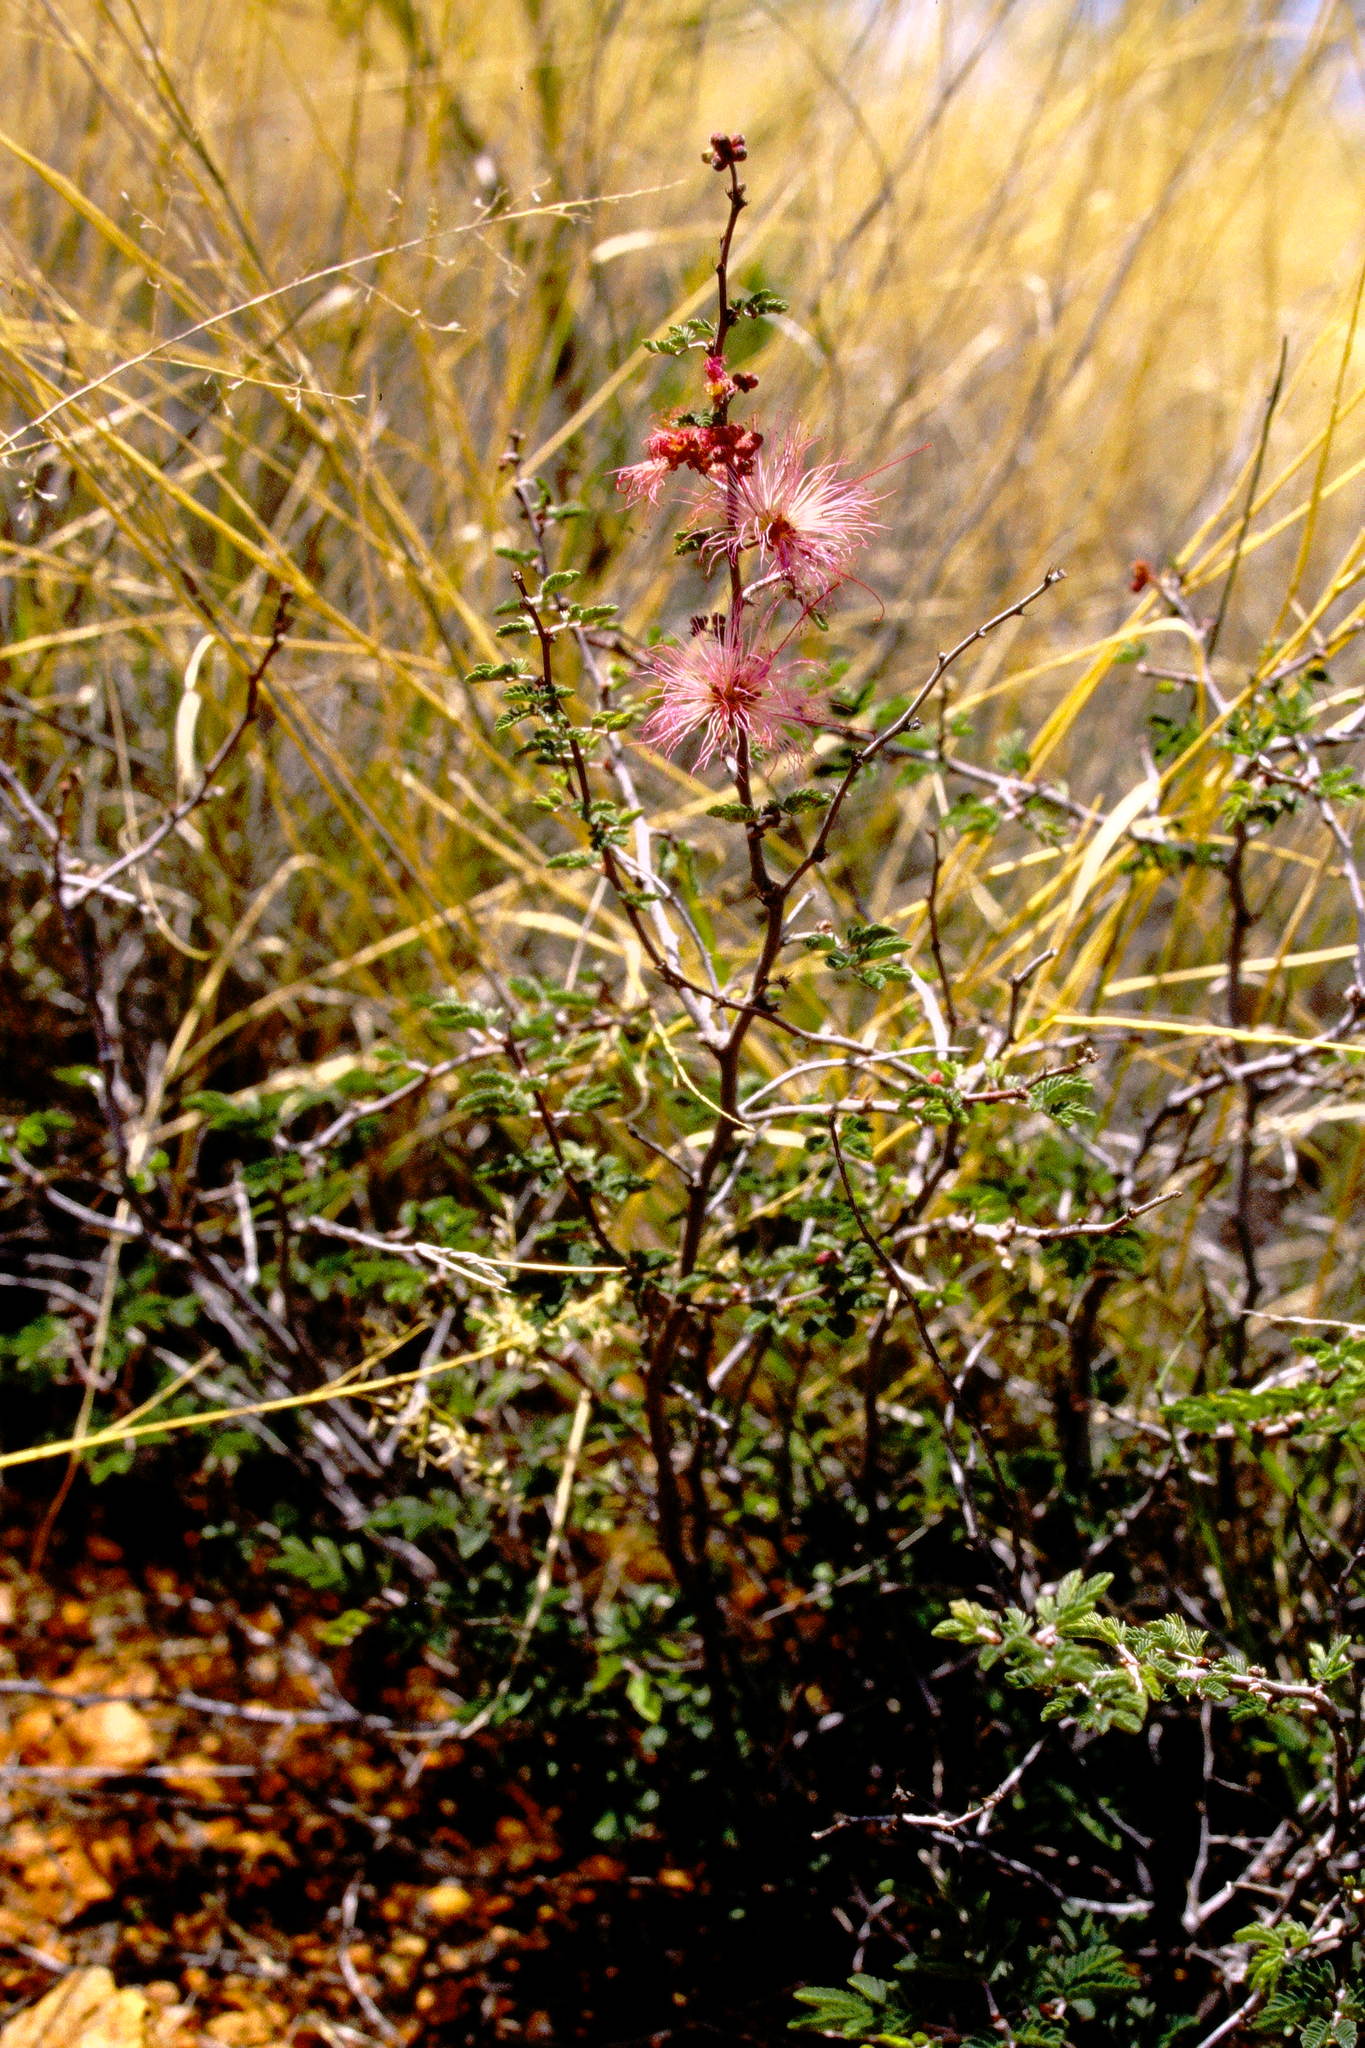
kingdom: Plantae
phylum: Tracheophyta
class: Magnoliopsida
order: Fabales
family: Fabaceae
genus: Calliandra
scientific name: Calliandra eriophylla
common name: Fairy-duster
